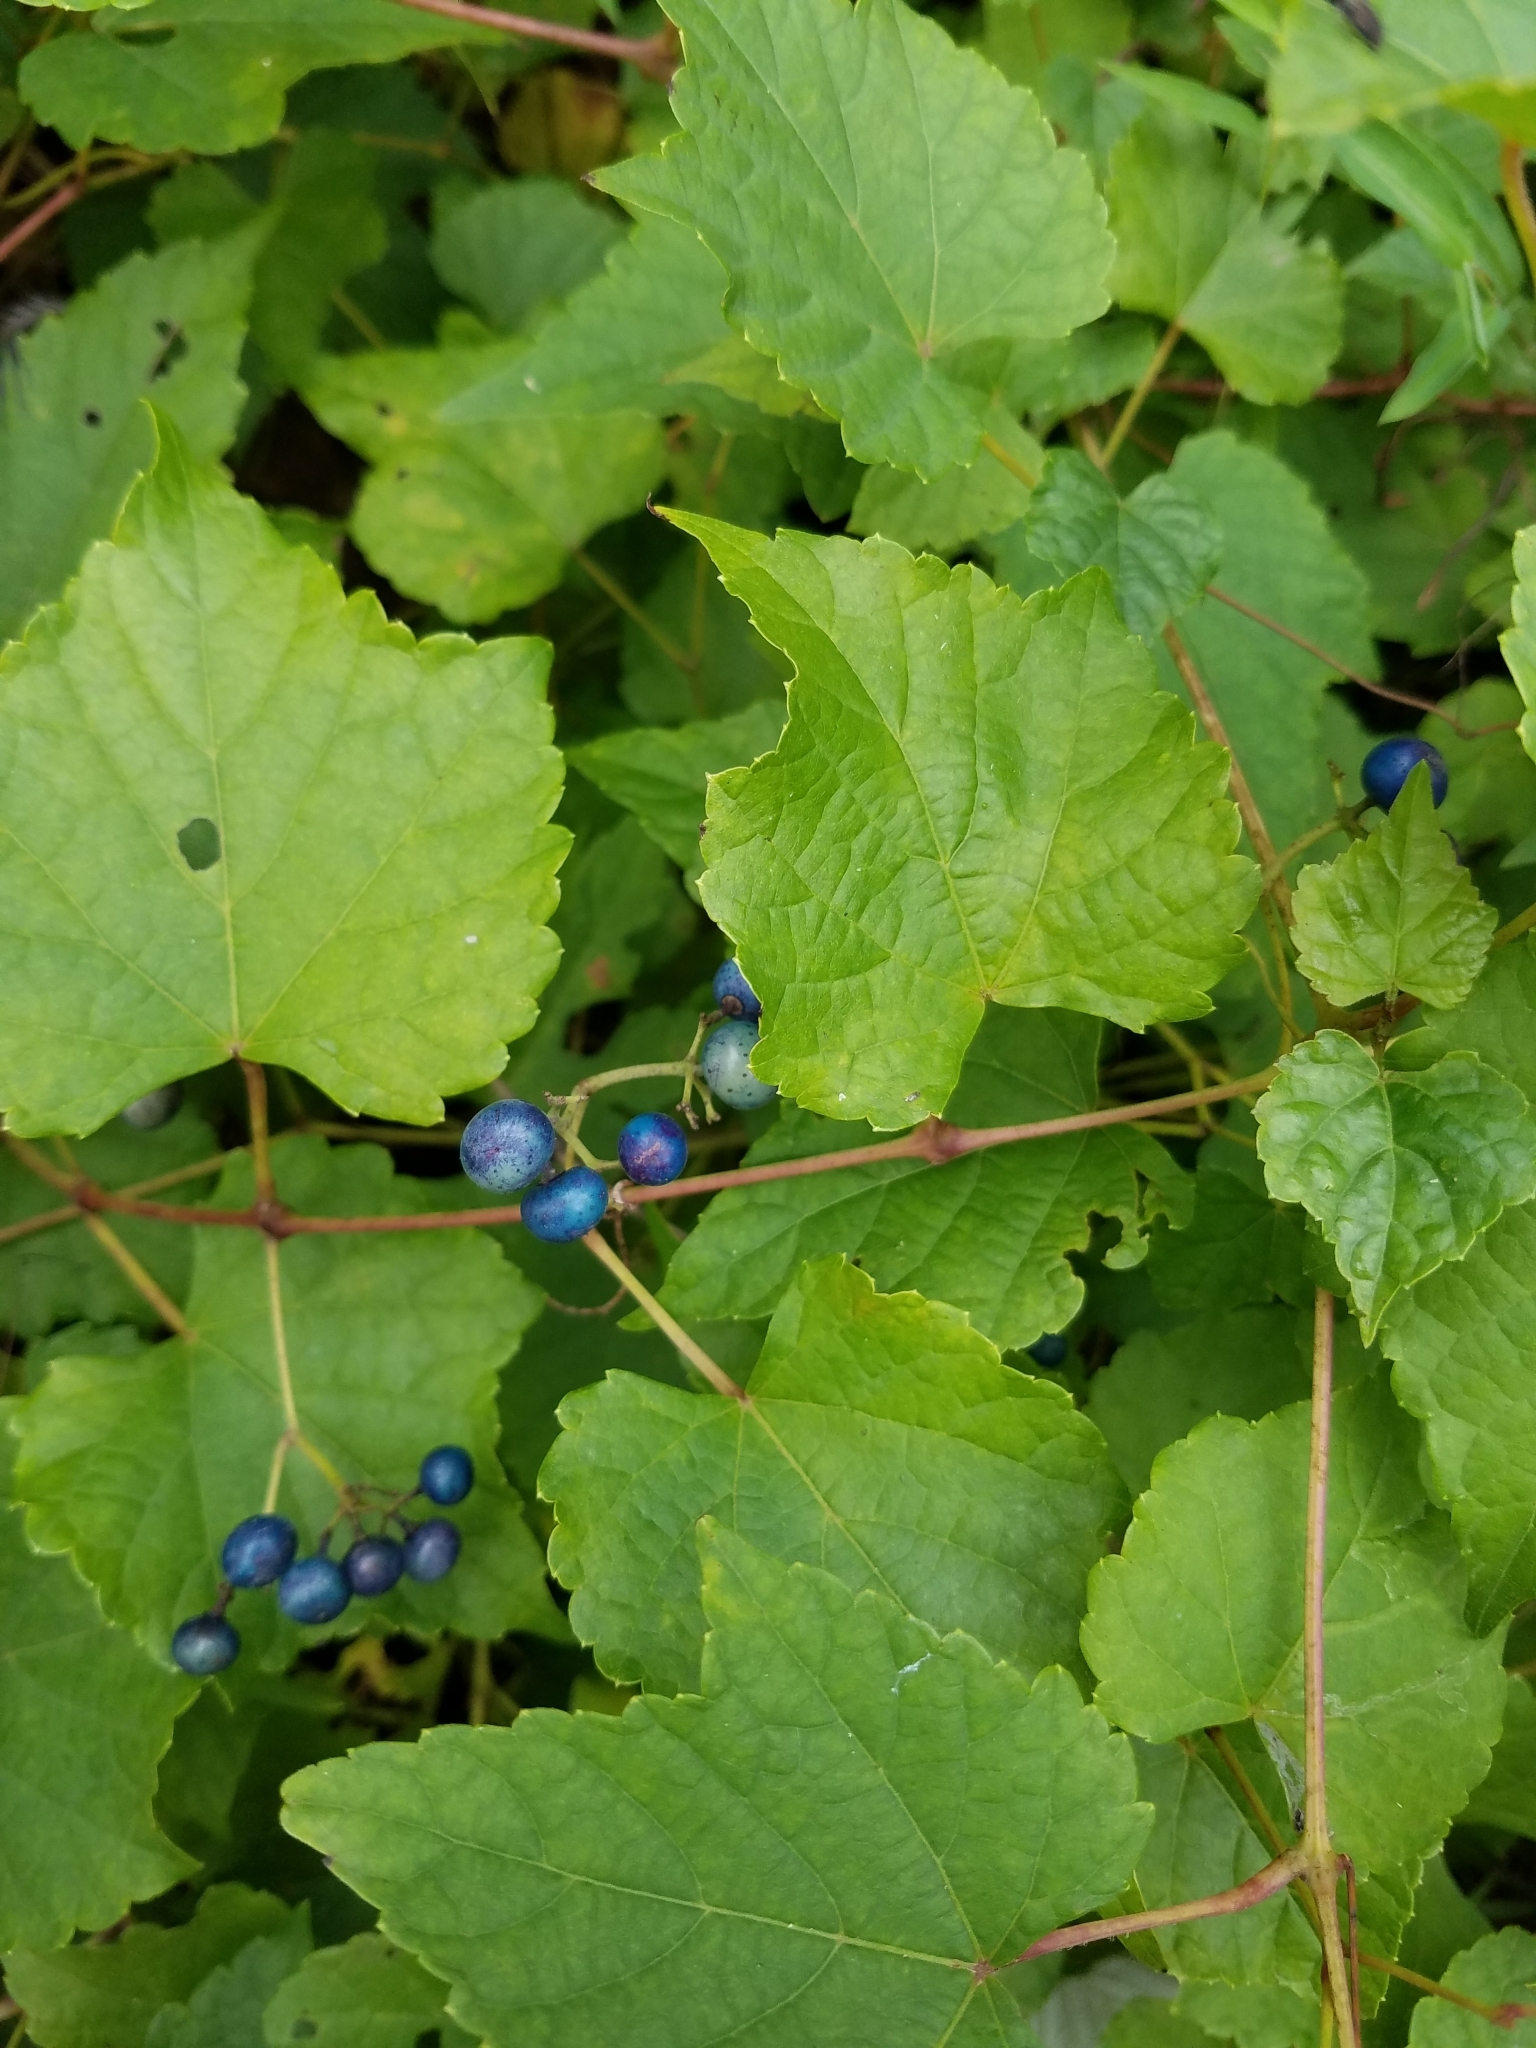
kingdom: Plantae
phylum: Tracheophyta
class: Magnoliopsida
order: Vitales
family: Vitaceae
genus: Ampelopsis
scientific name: Ampelopsis glandulosa
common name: Amur peppervine
